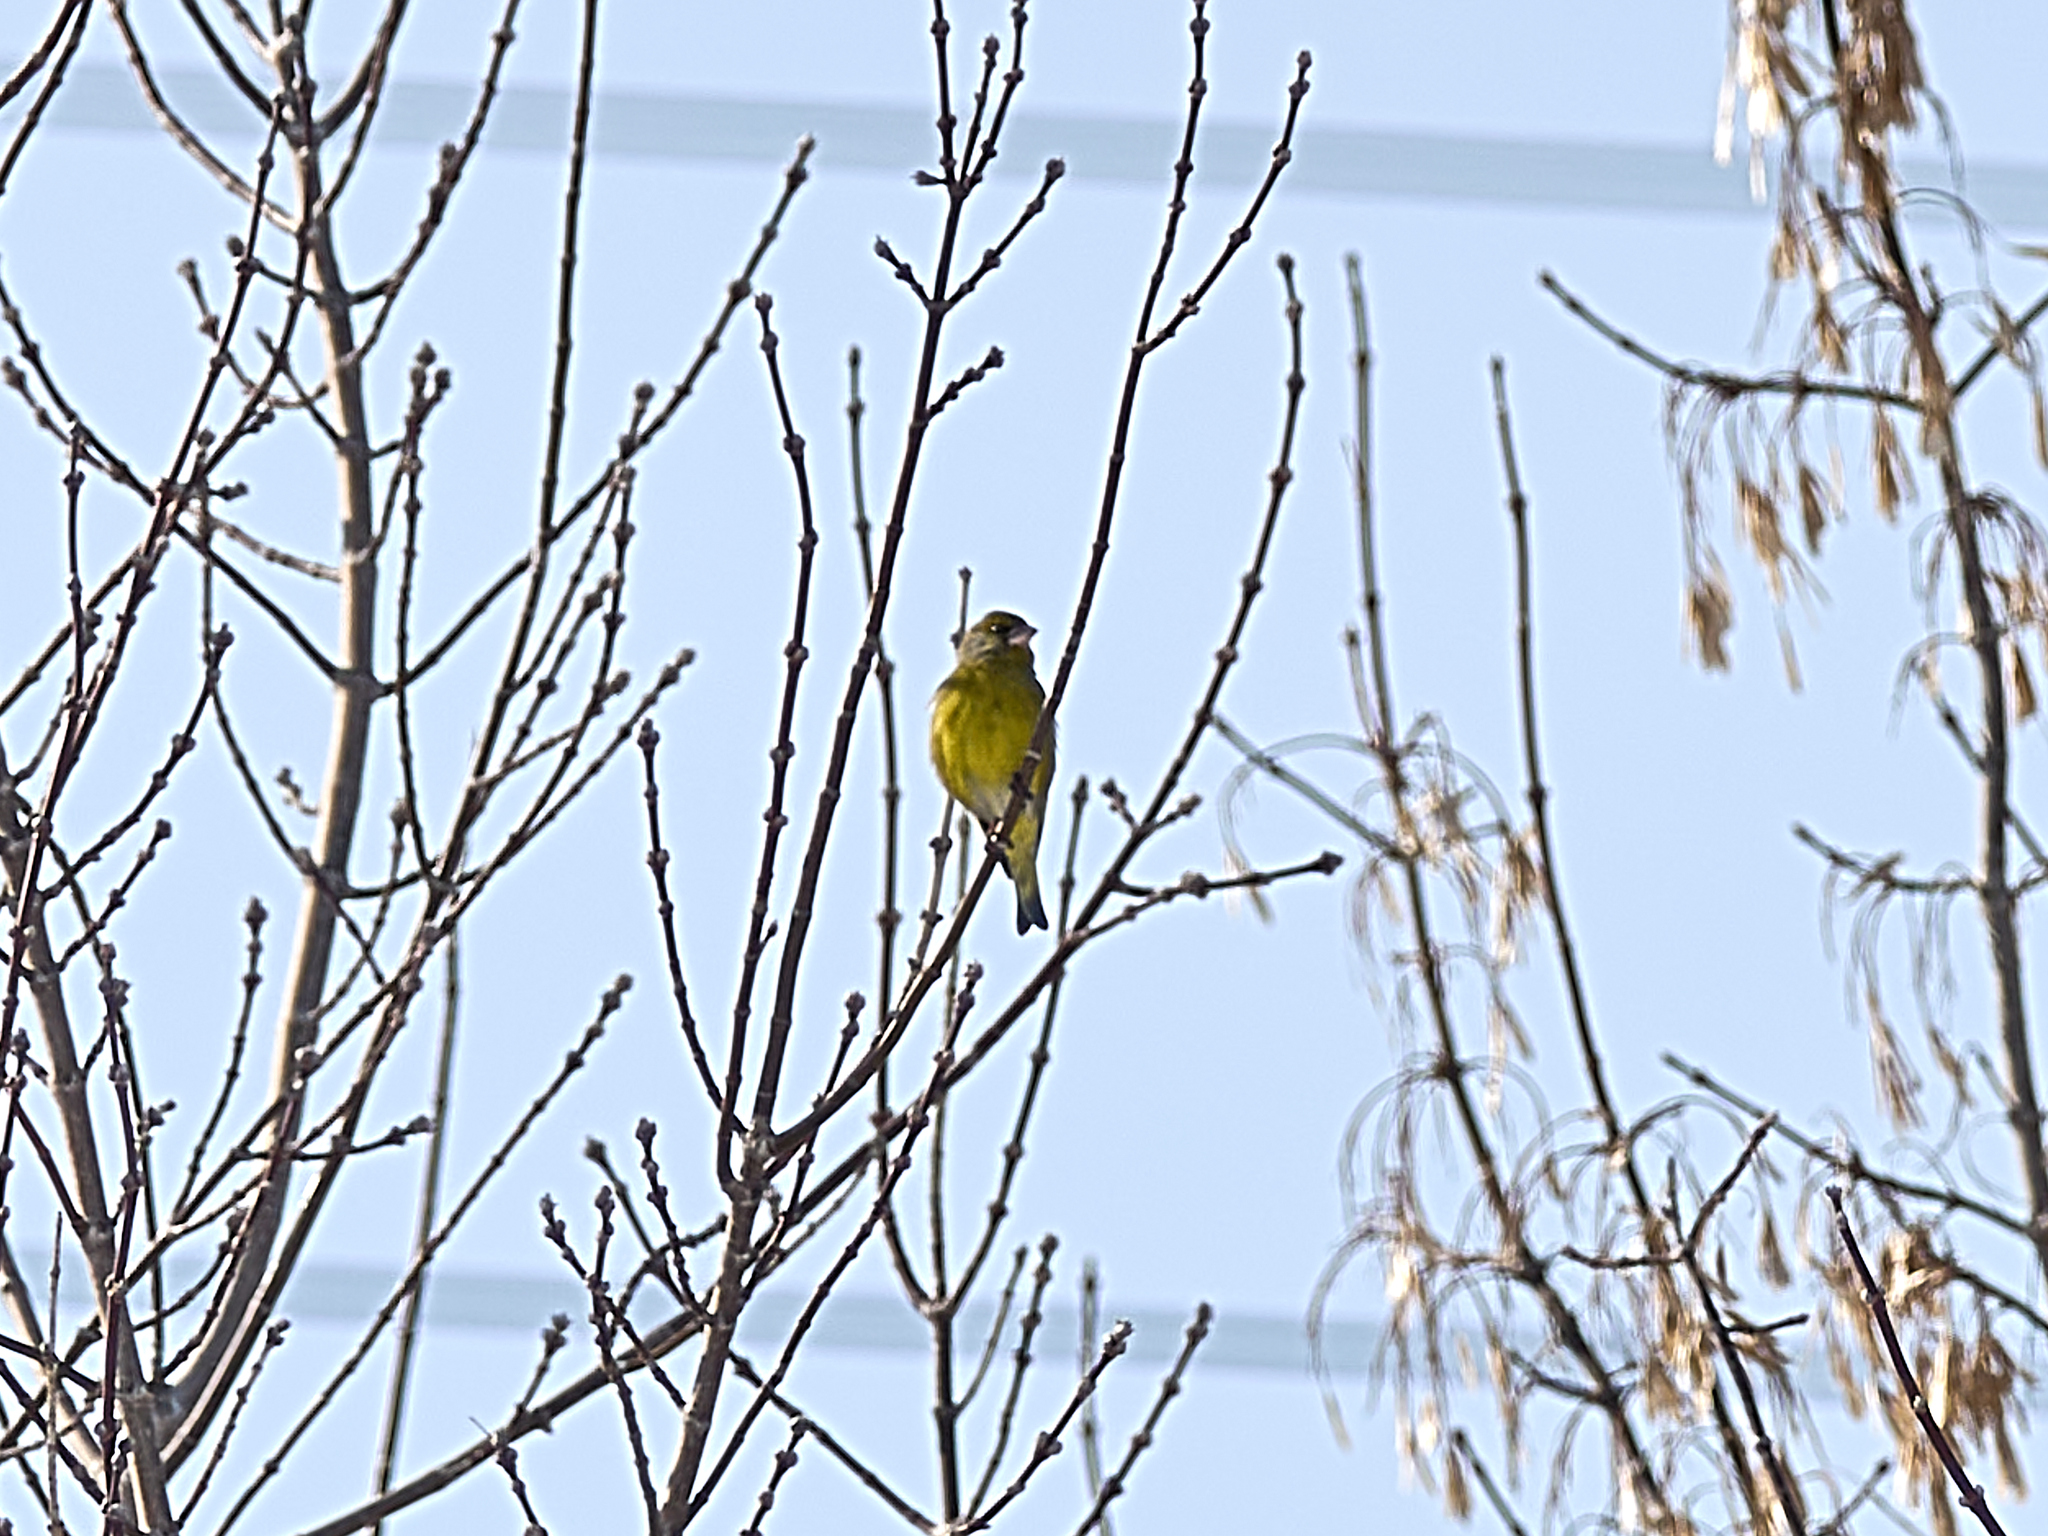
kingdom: Plantae
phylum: Tracheophyta
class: Liliopsida
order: Poales
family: Poaceae
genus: Chloris
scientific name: Chloris chloris
